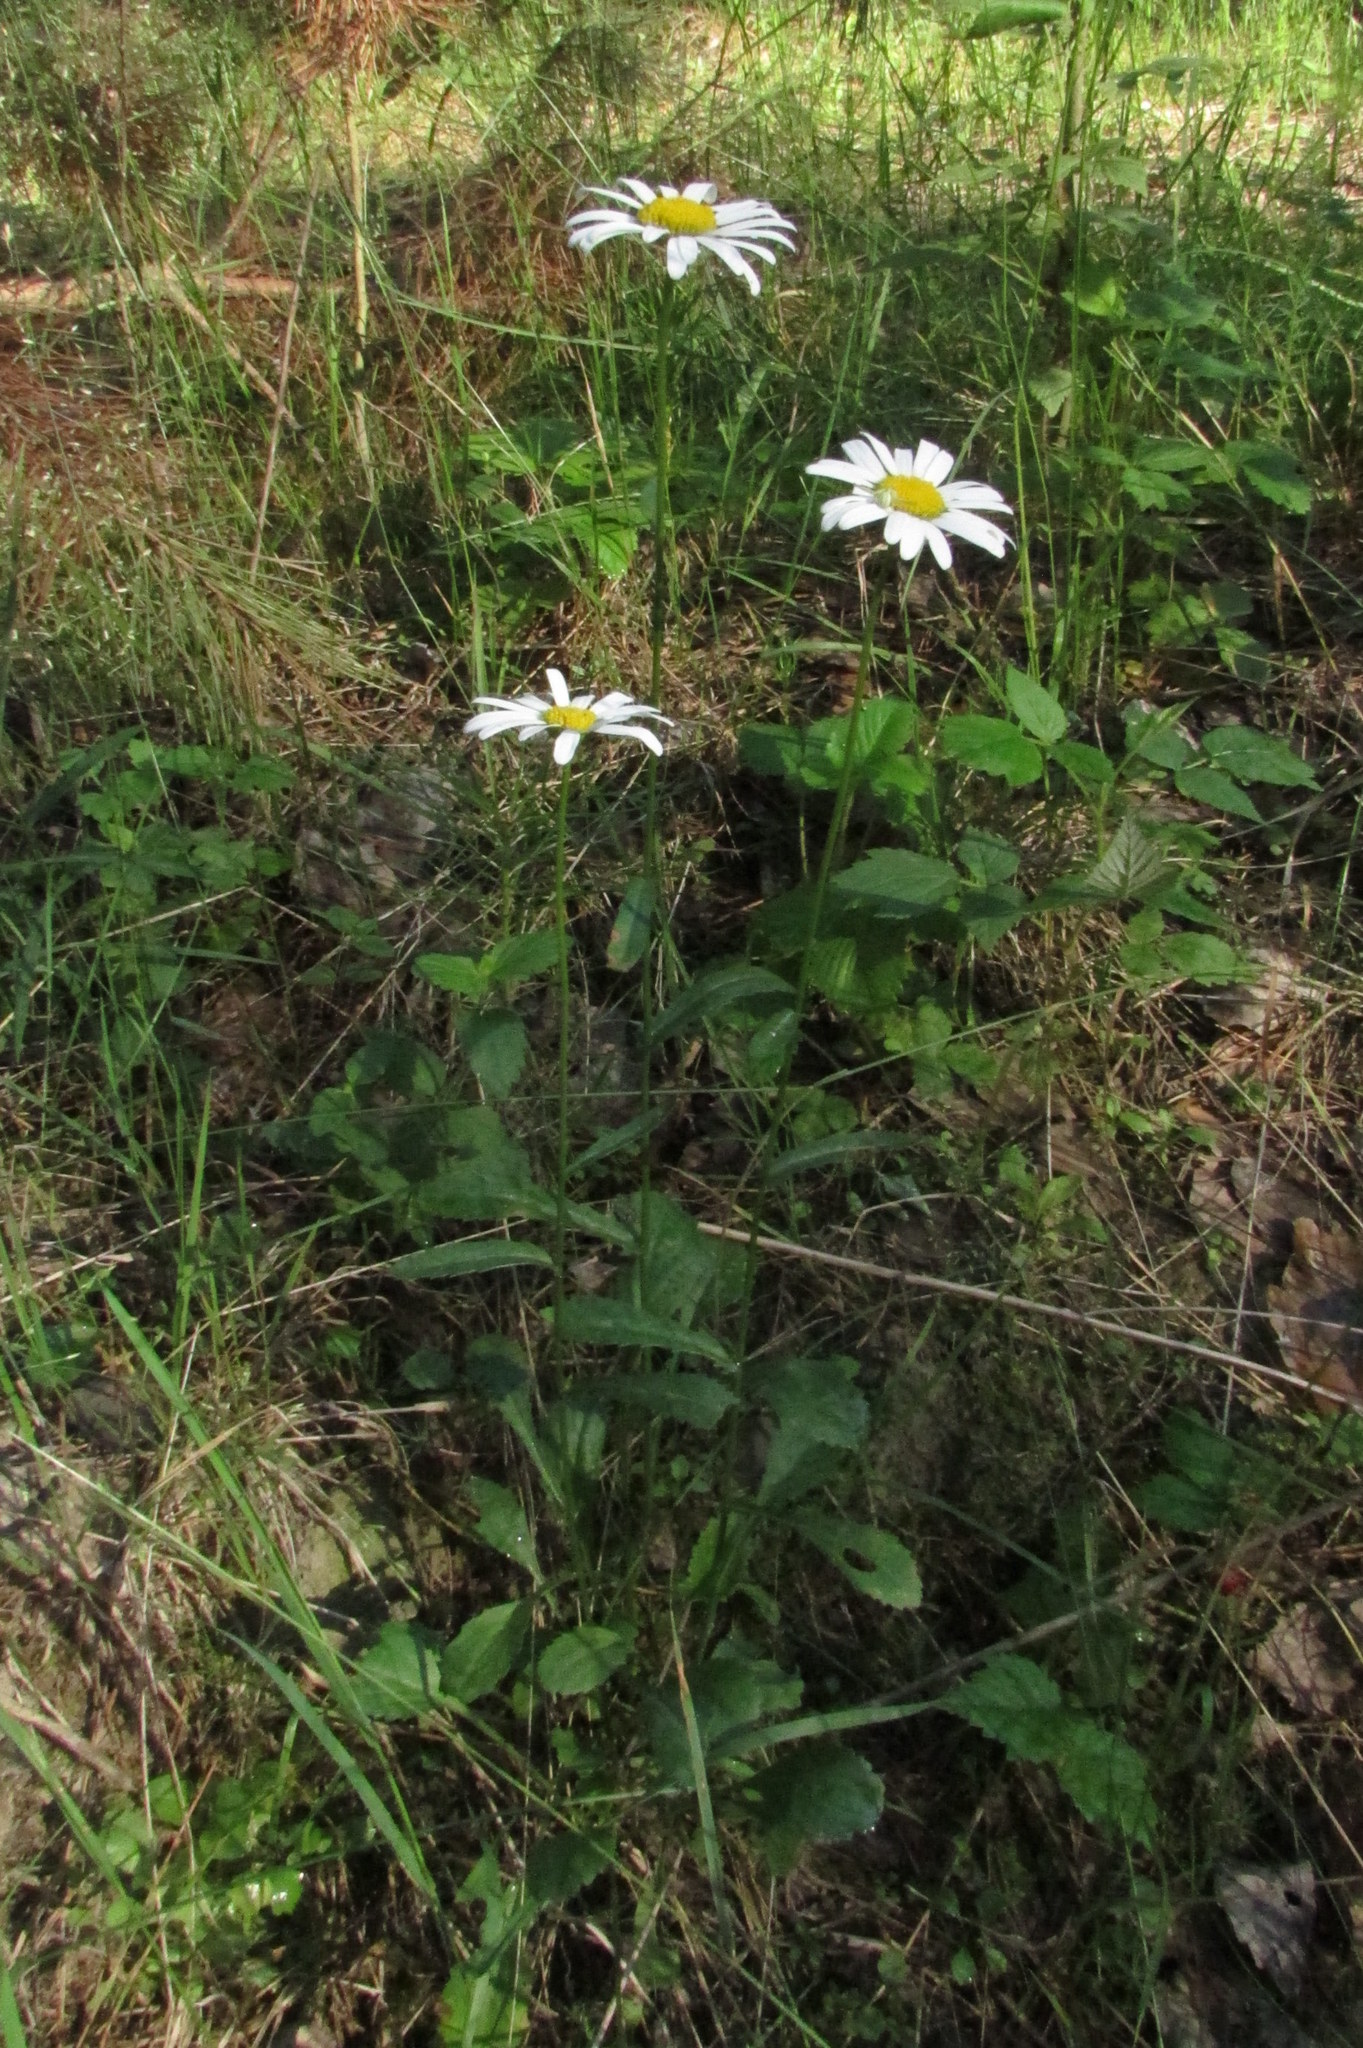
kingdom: Plantae
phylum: Tracheophyta
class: Magnoliopsida
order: Asterales
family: Asteraceae
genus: Leucanthemum
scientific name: Leucanthemum vulgare
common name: Oxeye daisy
